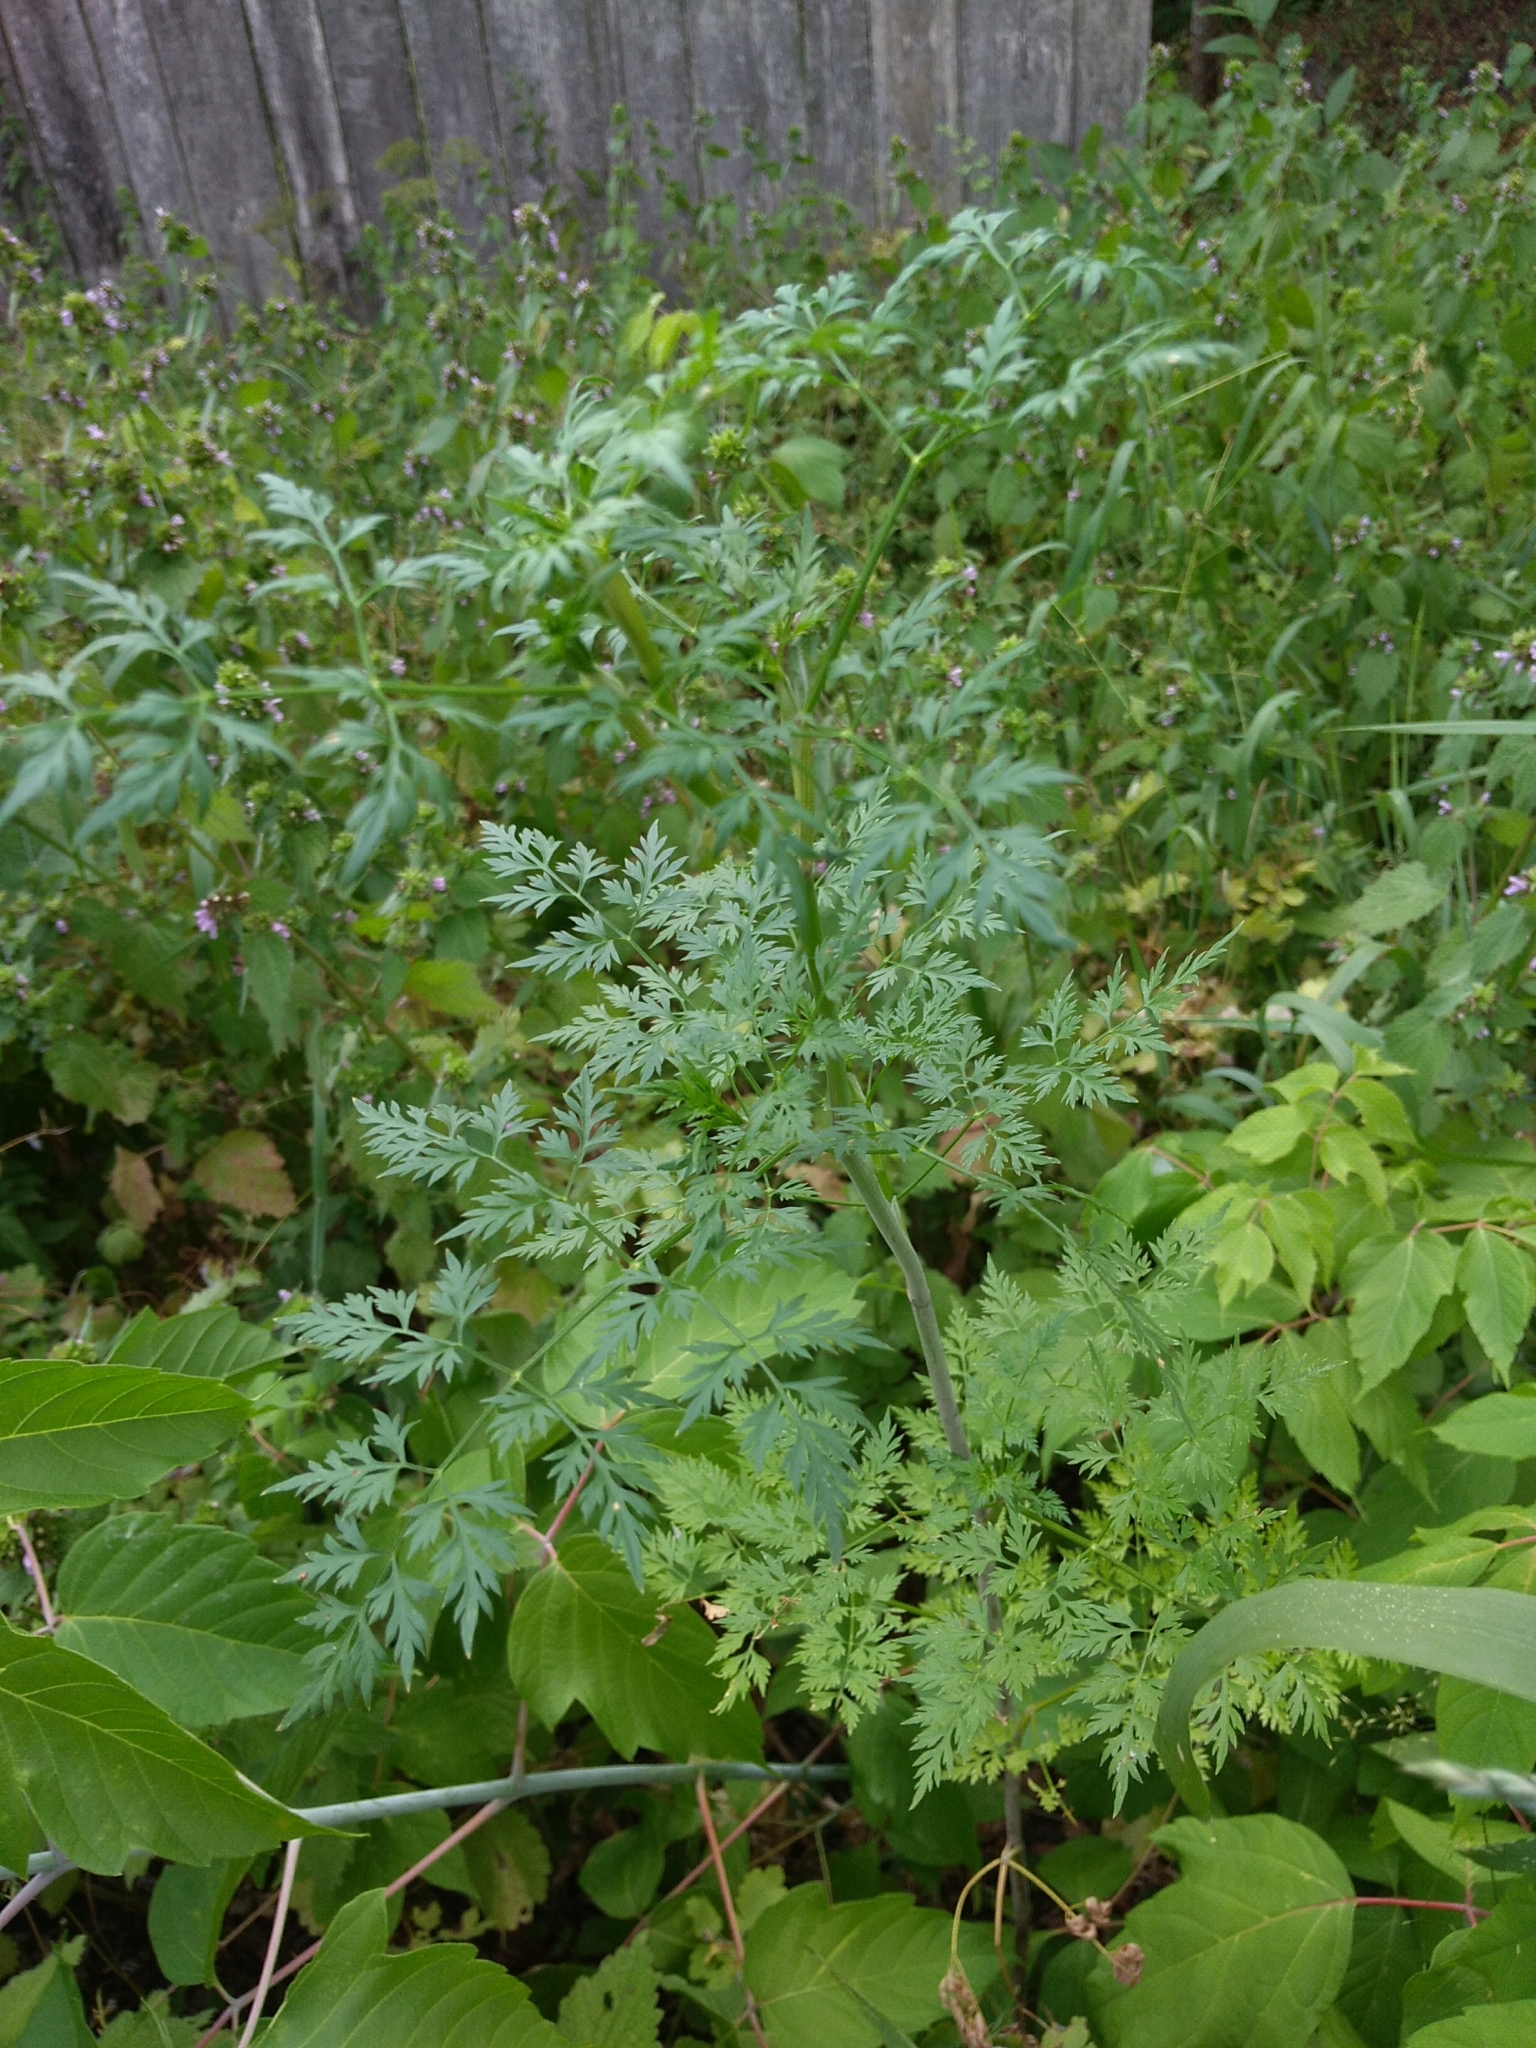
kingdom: Plantae
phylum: Tracheophyta
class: Magnoliopsida
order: Apiales
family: Apiaceae
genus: Conium
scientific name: Conium maculatum
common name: Hemlock
